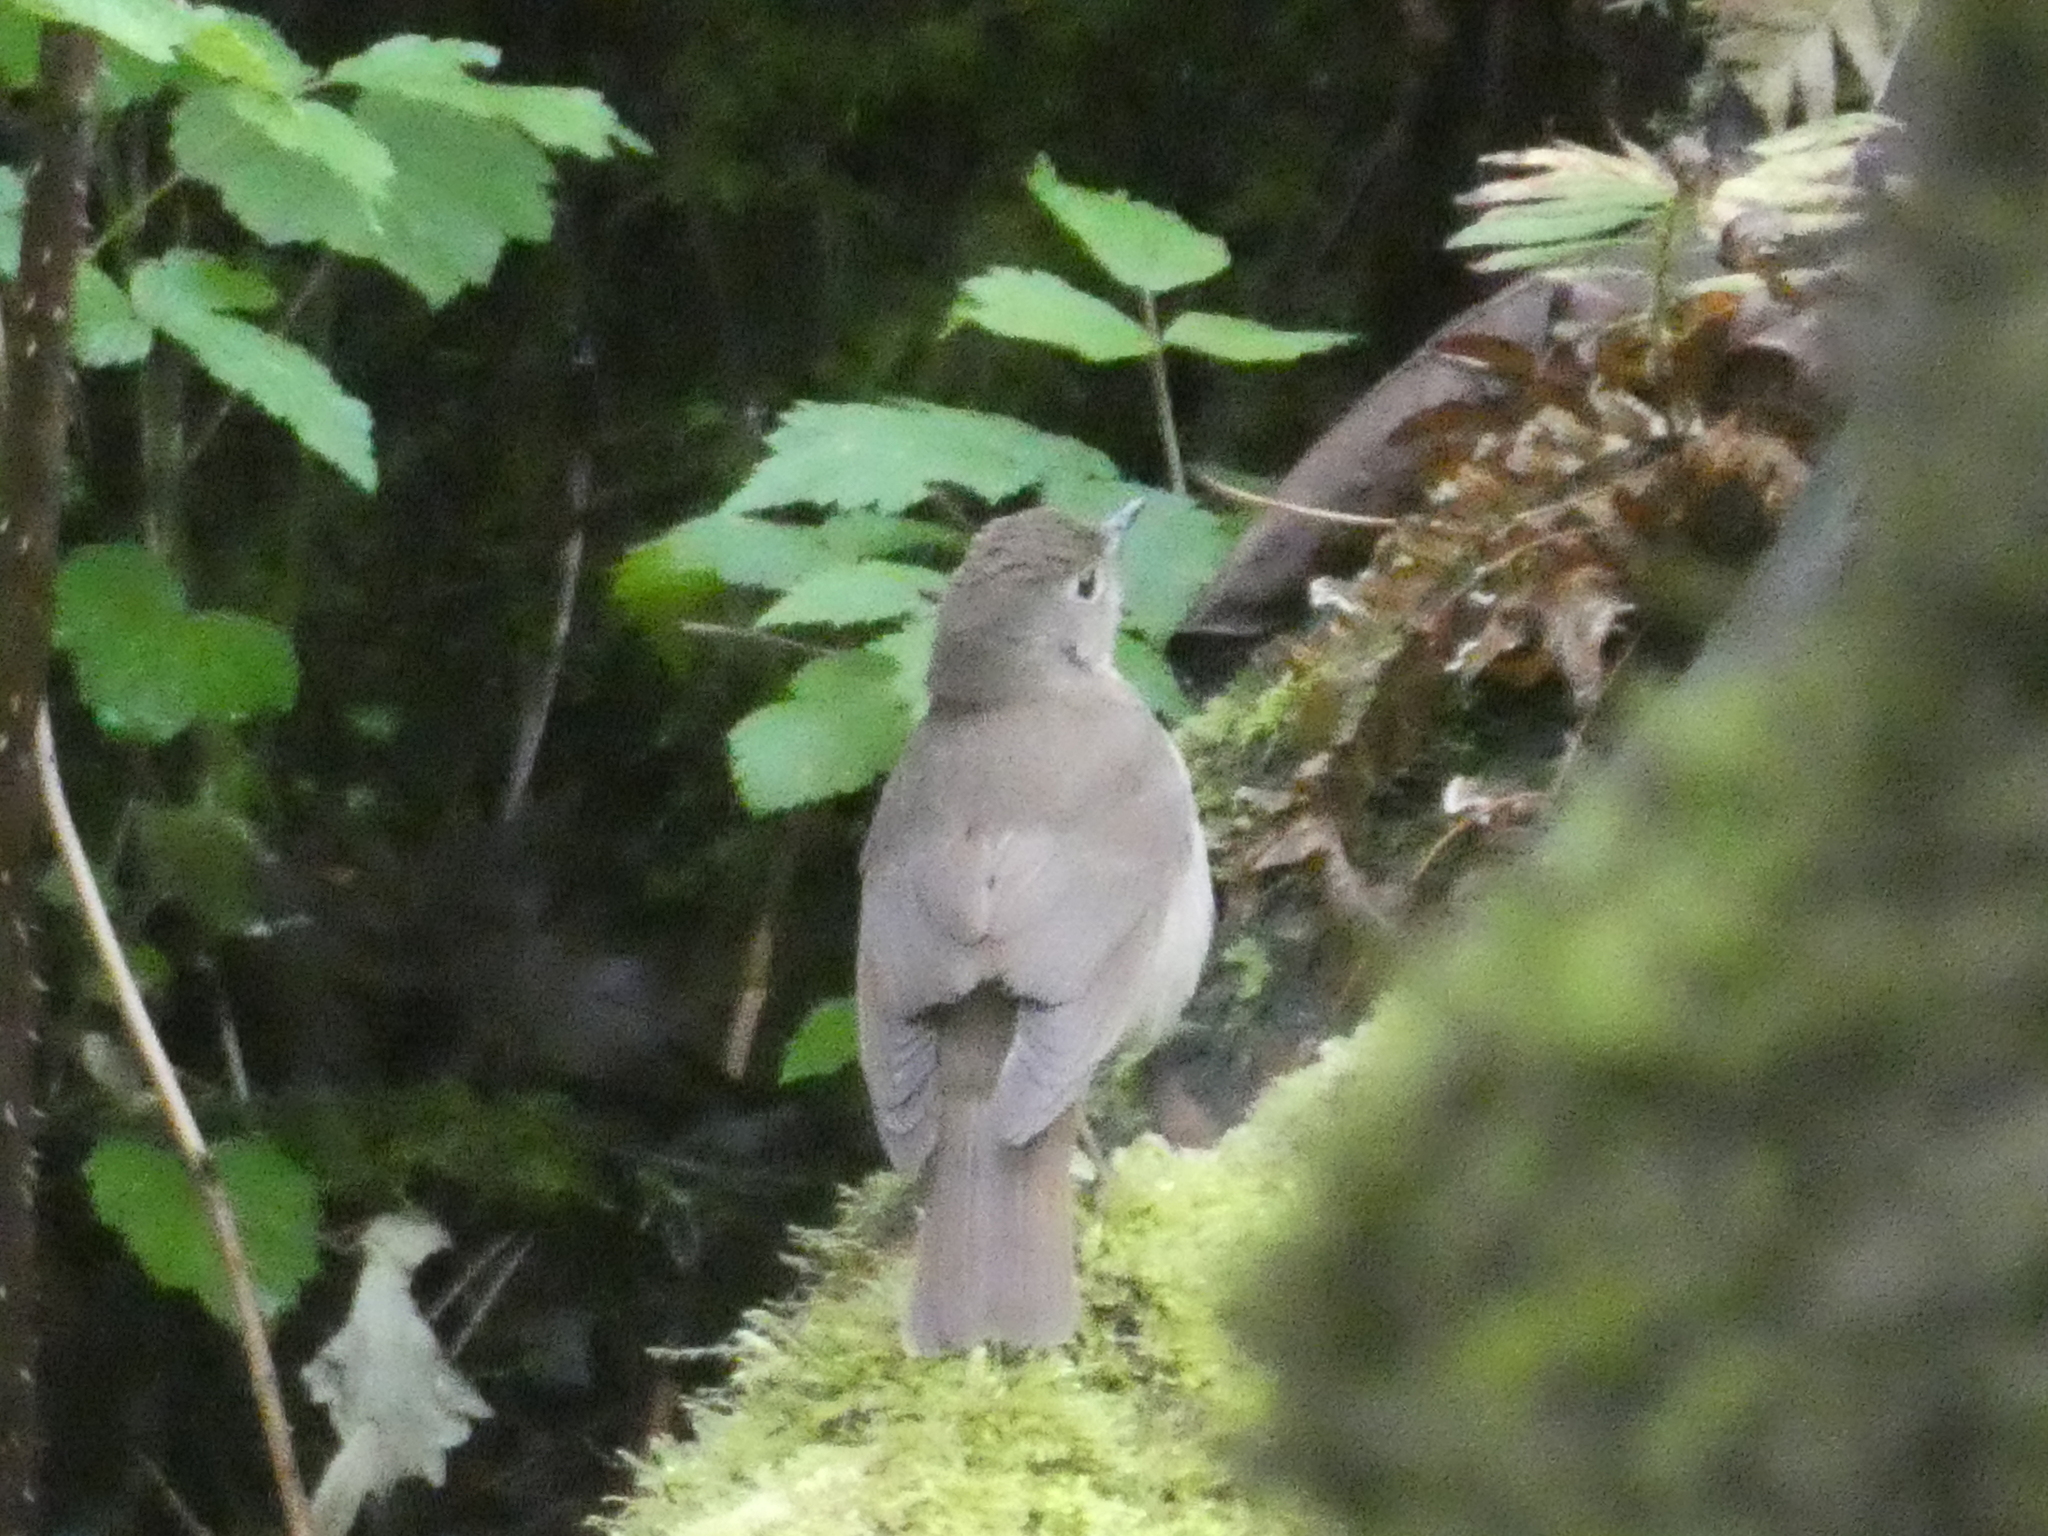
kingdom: Animalia
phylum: Chordata
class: Aves
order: Passeriformes
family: Turdidae
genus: Catharus
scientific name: Catharus ustulatus
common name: Swainson's thrush
